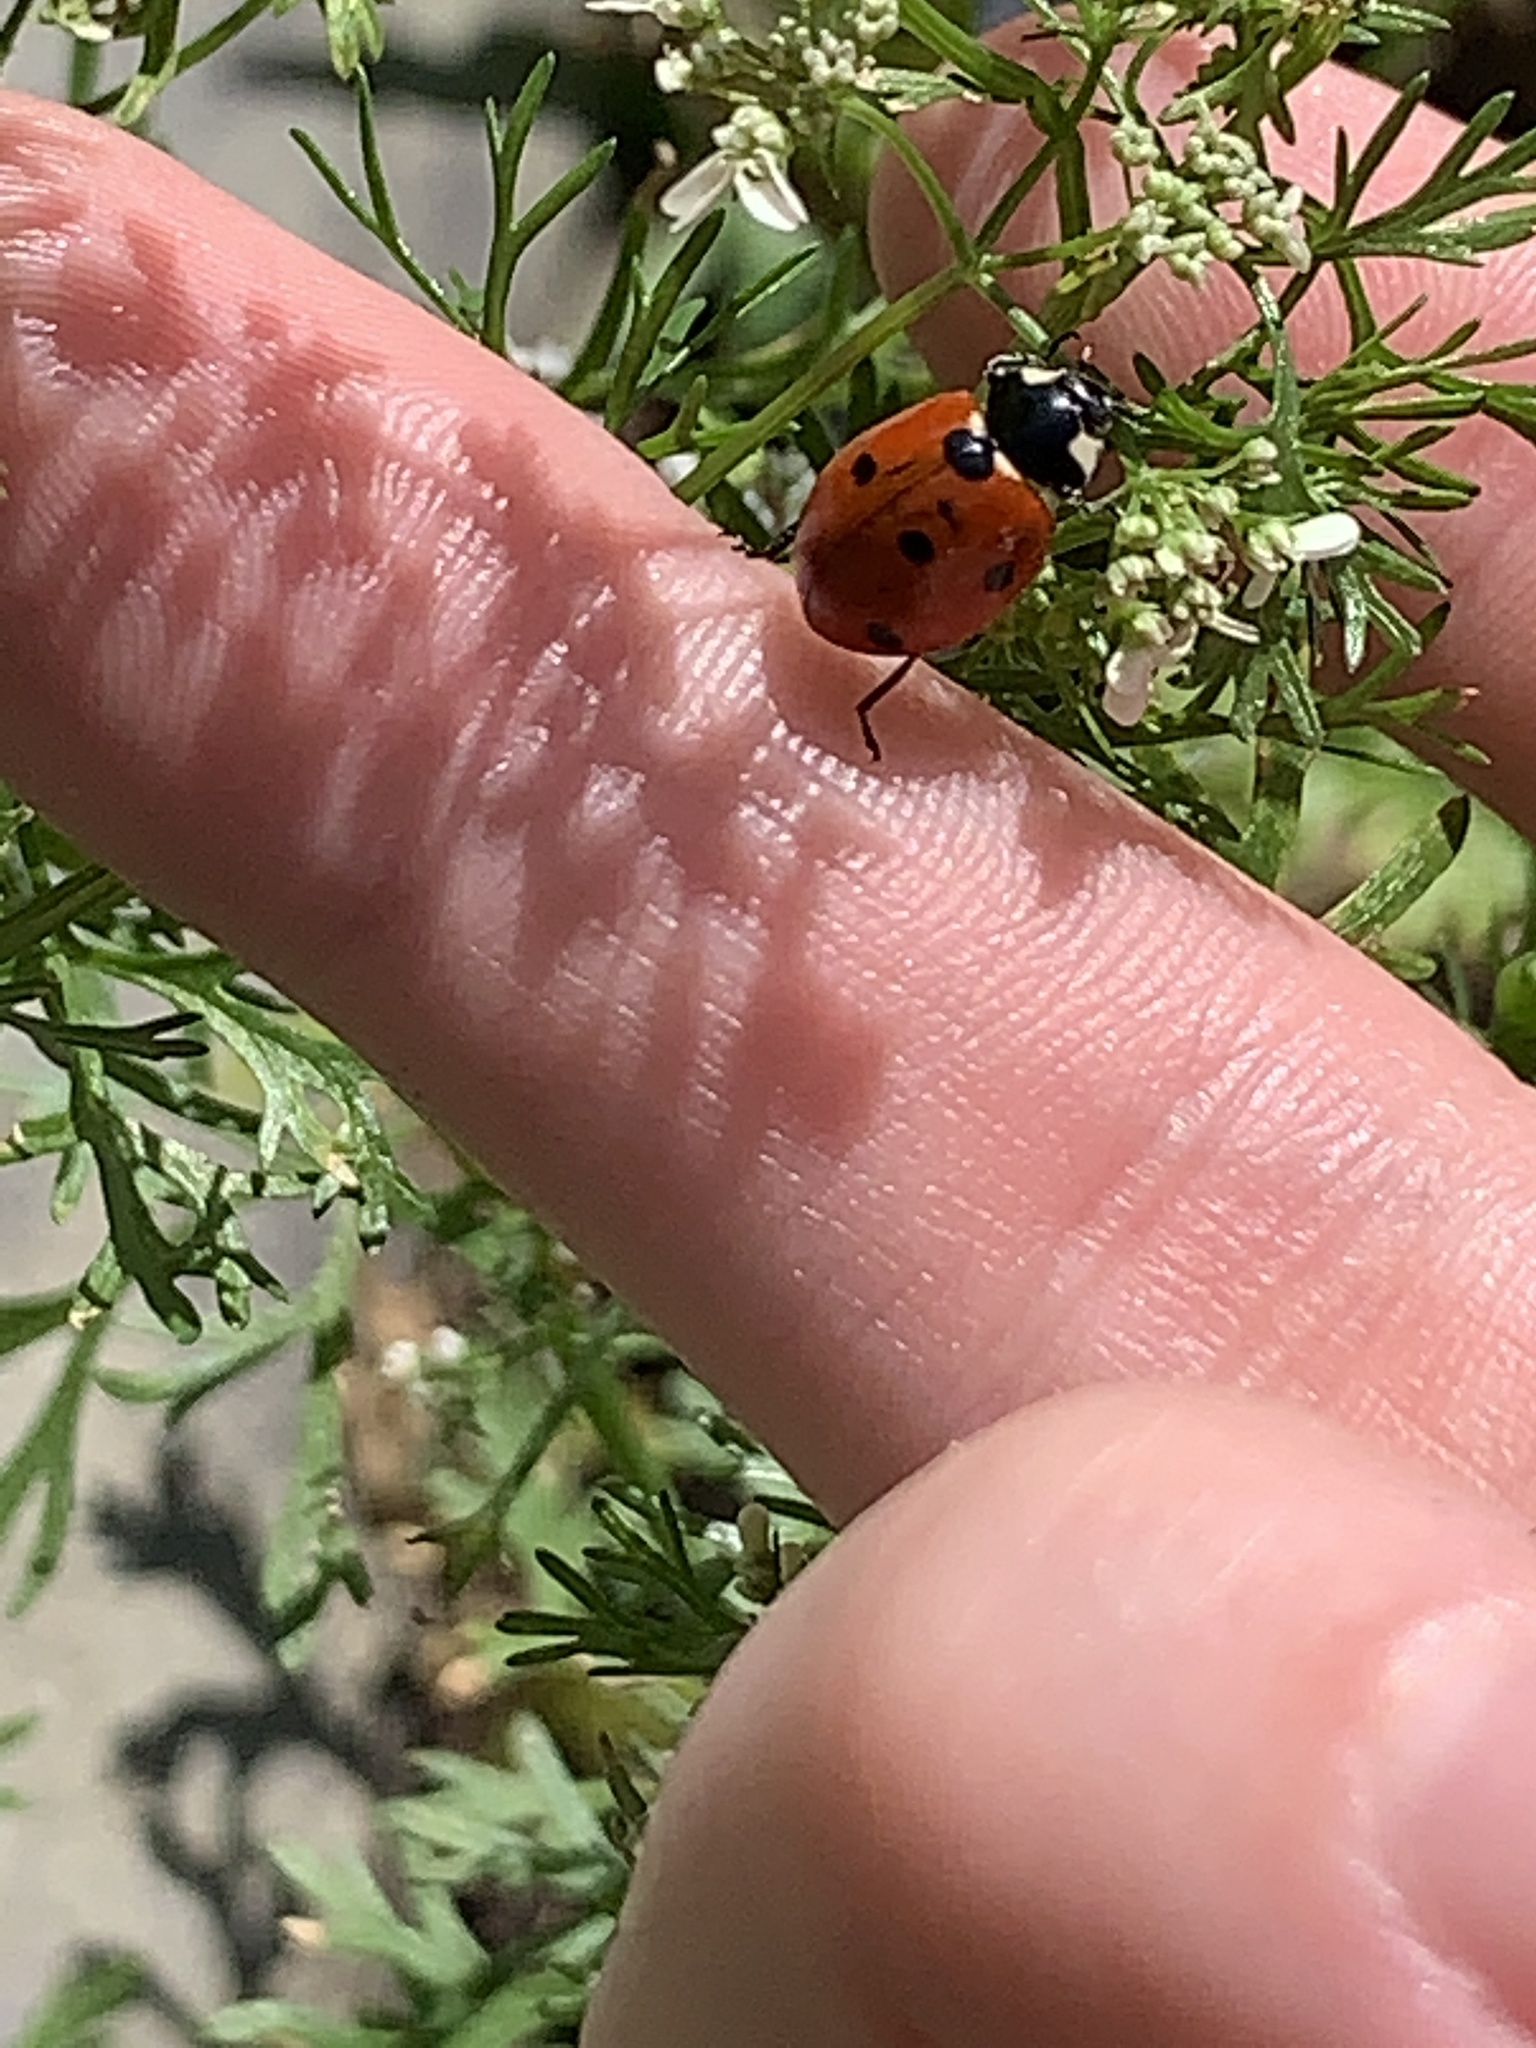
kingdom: Animalia
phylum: Arthropoda
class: Insecta
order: Coleoptera
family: Coccinellidae
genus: Coccinella
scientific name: Coccinella septempunctata
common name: Sevenspotted lady beetle
